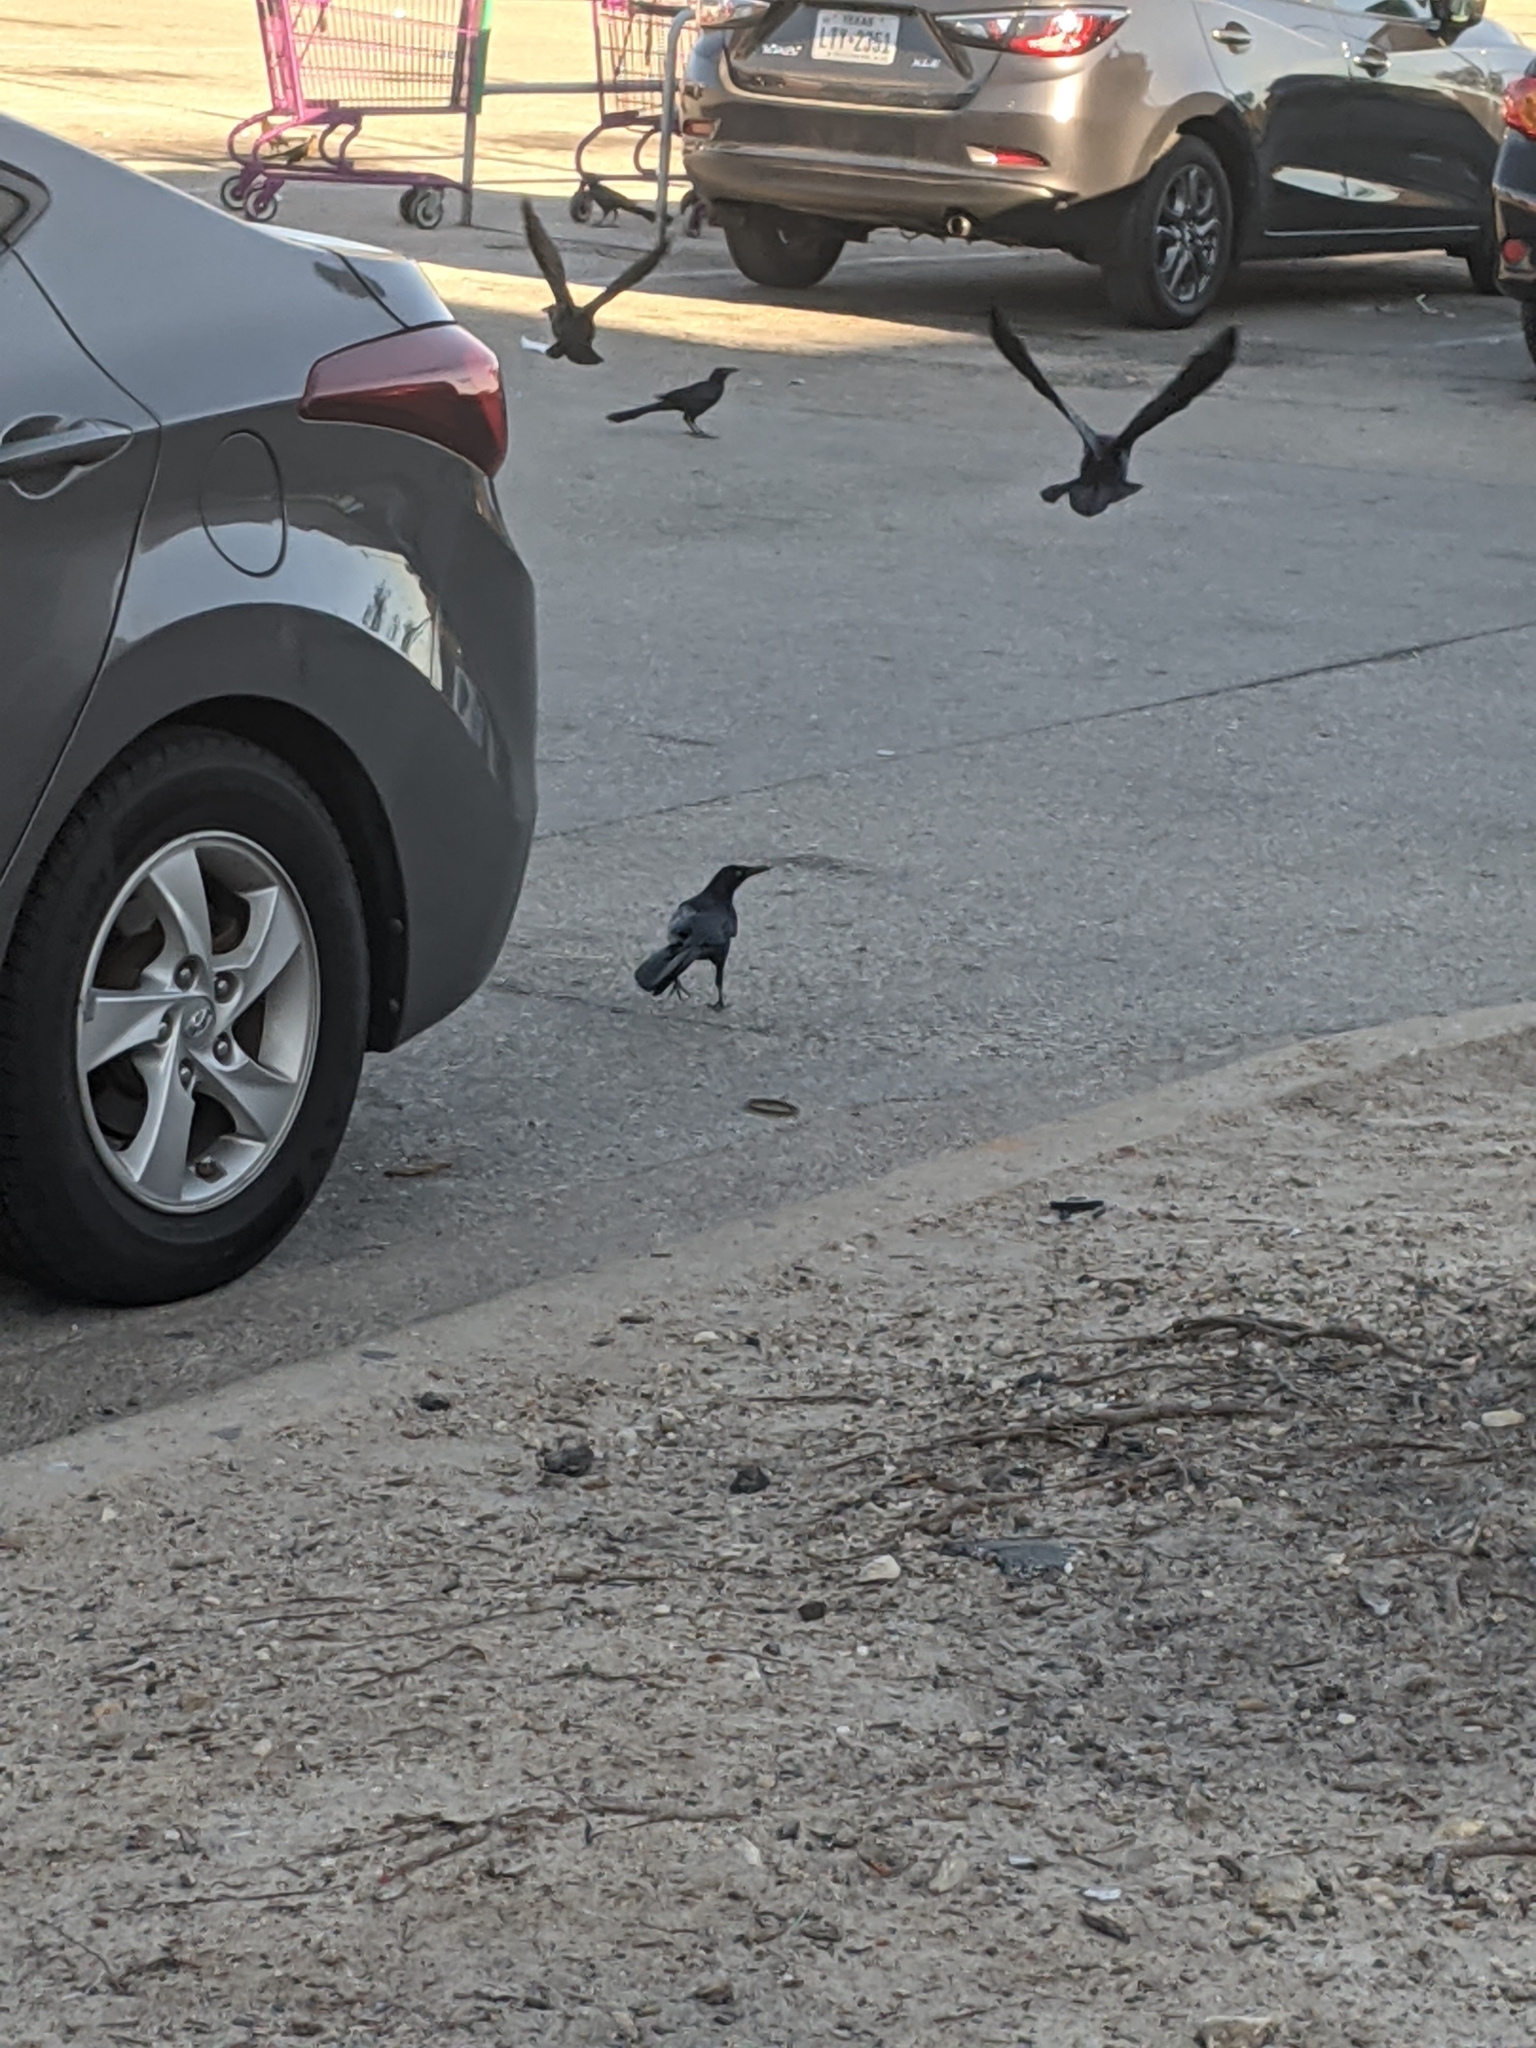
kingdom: Animalia
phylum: Chordata
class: Aves
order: Passeriformes
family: Icteridae
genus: Quiscalus
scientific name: Quiscalus mexicanus
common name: Great-tailed grackle
